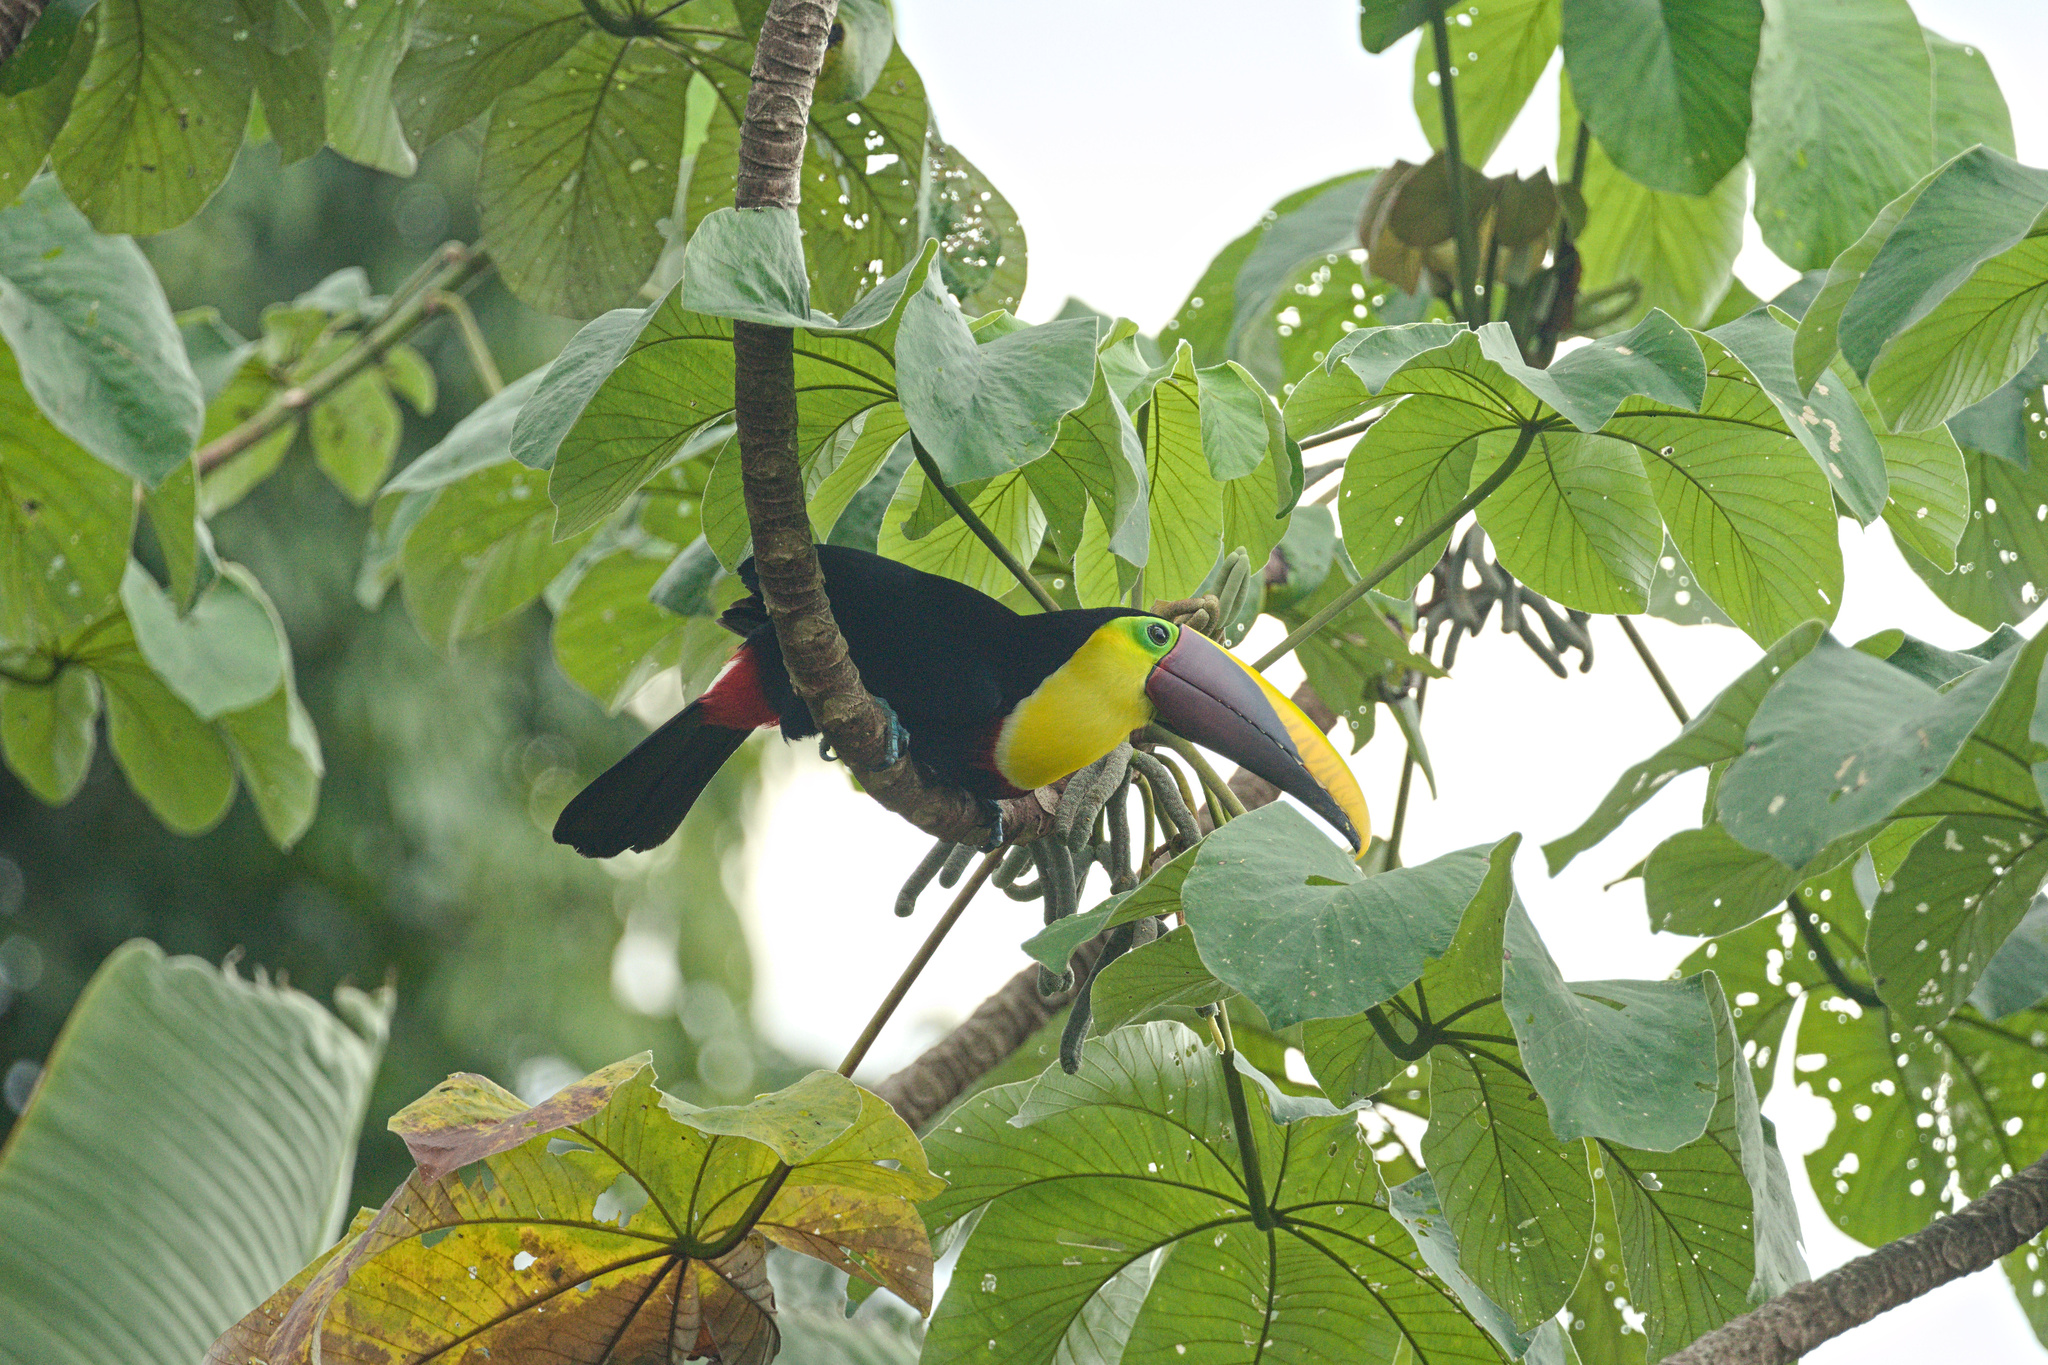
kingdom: Animalia
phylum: Chordata
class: Aves
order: Piciformes
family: Ramphastidae
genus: Ramphastos
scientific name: Ramphastos ambiguus
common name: Yellow-throated toucan
